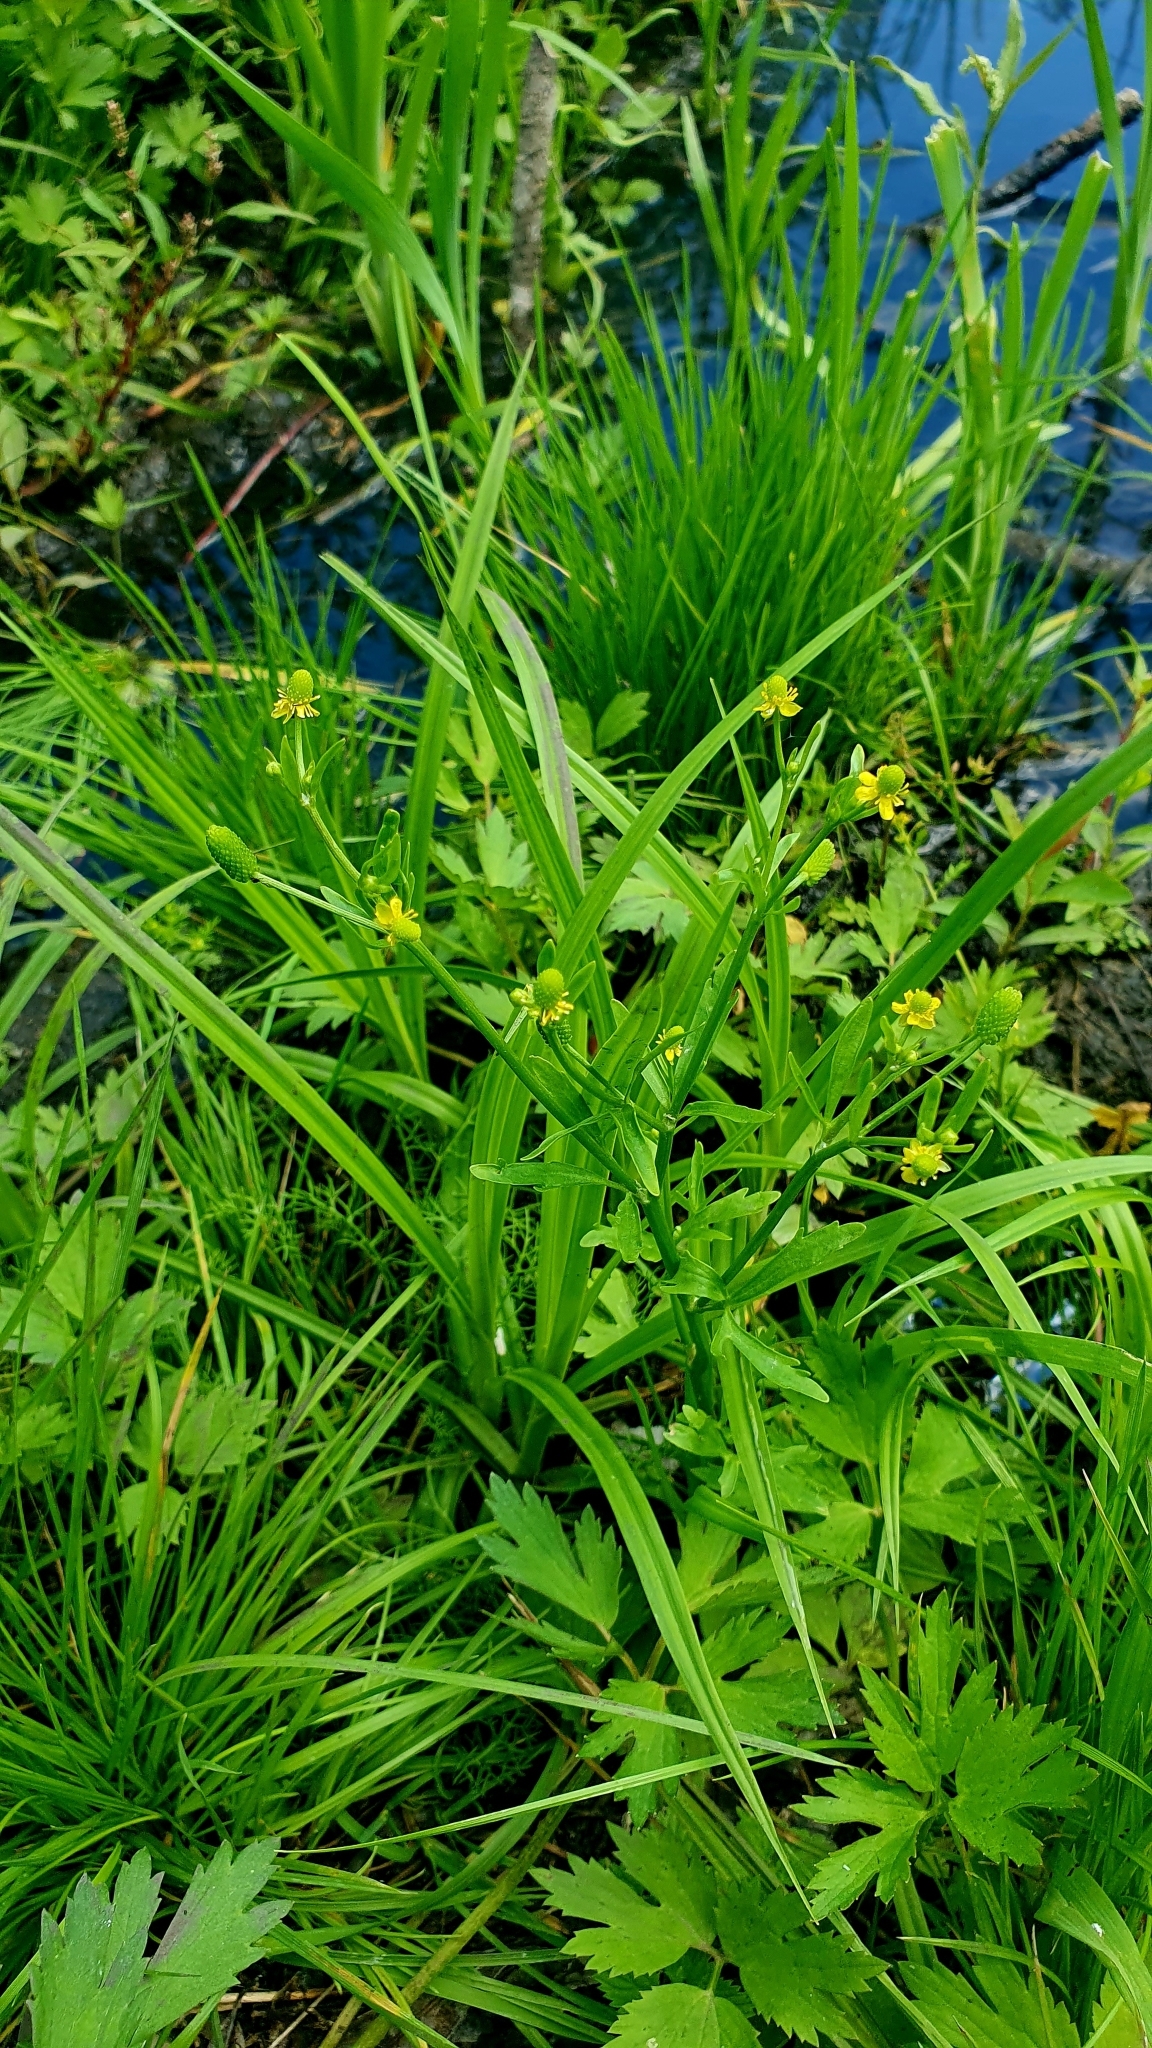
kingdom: Plantae
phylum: Tracheophyta
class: Magnoliopsida
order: Ranunculales
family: Ranunculaceae
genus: Ranunculus
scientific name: Ranunculus sceleratus
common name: Celery-leaved buttercup
